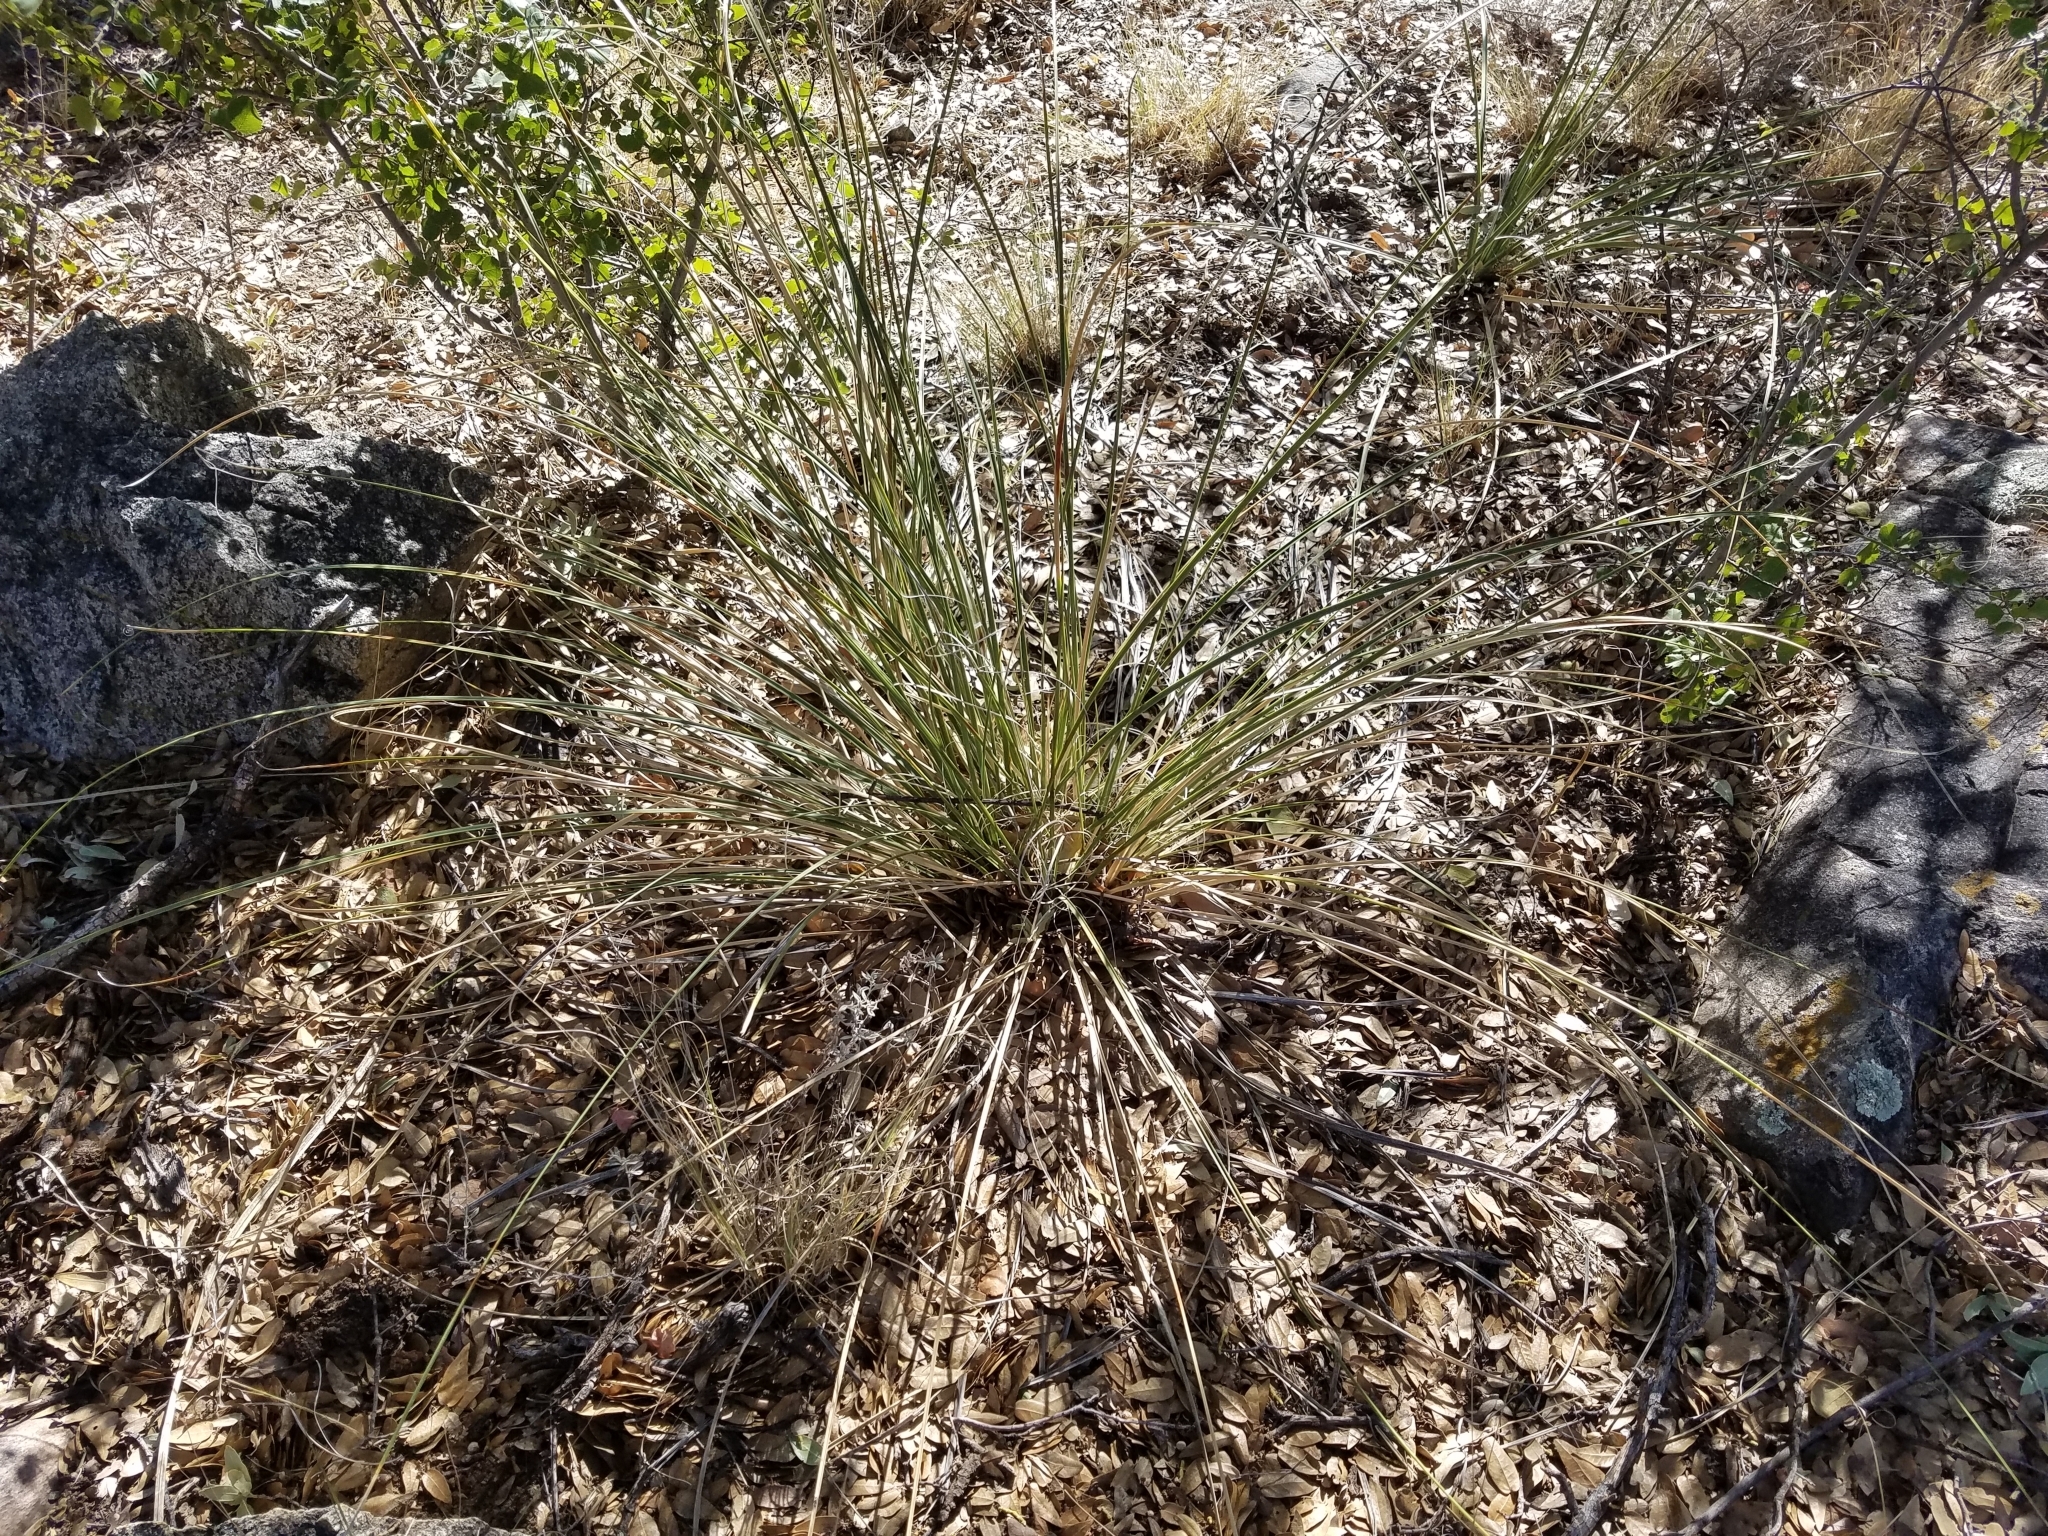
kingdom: Plantae
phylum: Tracheophyta
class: Liliopsida
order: Asparagales
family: Asparagaceae
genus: Nolina
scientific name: Nolina microcarpa
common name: Bear-grass
